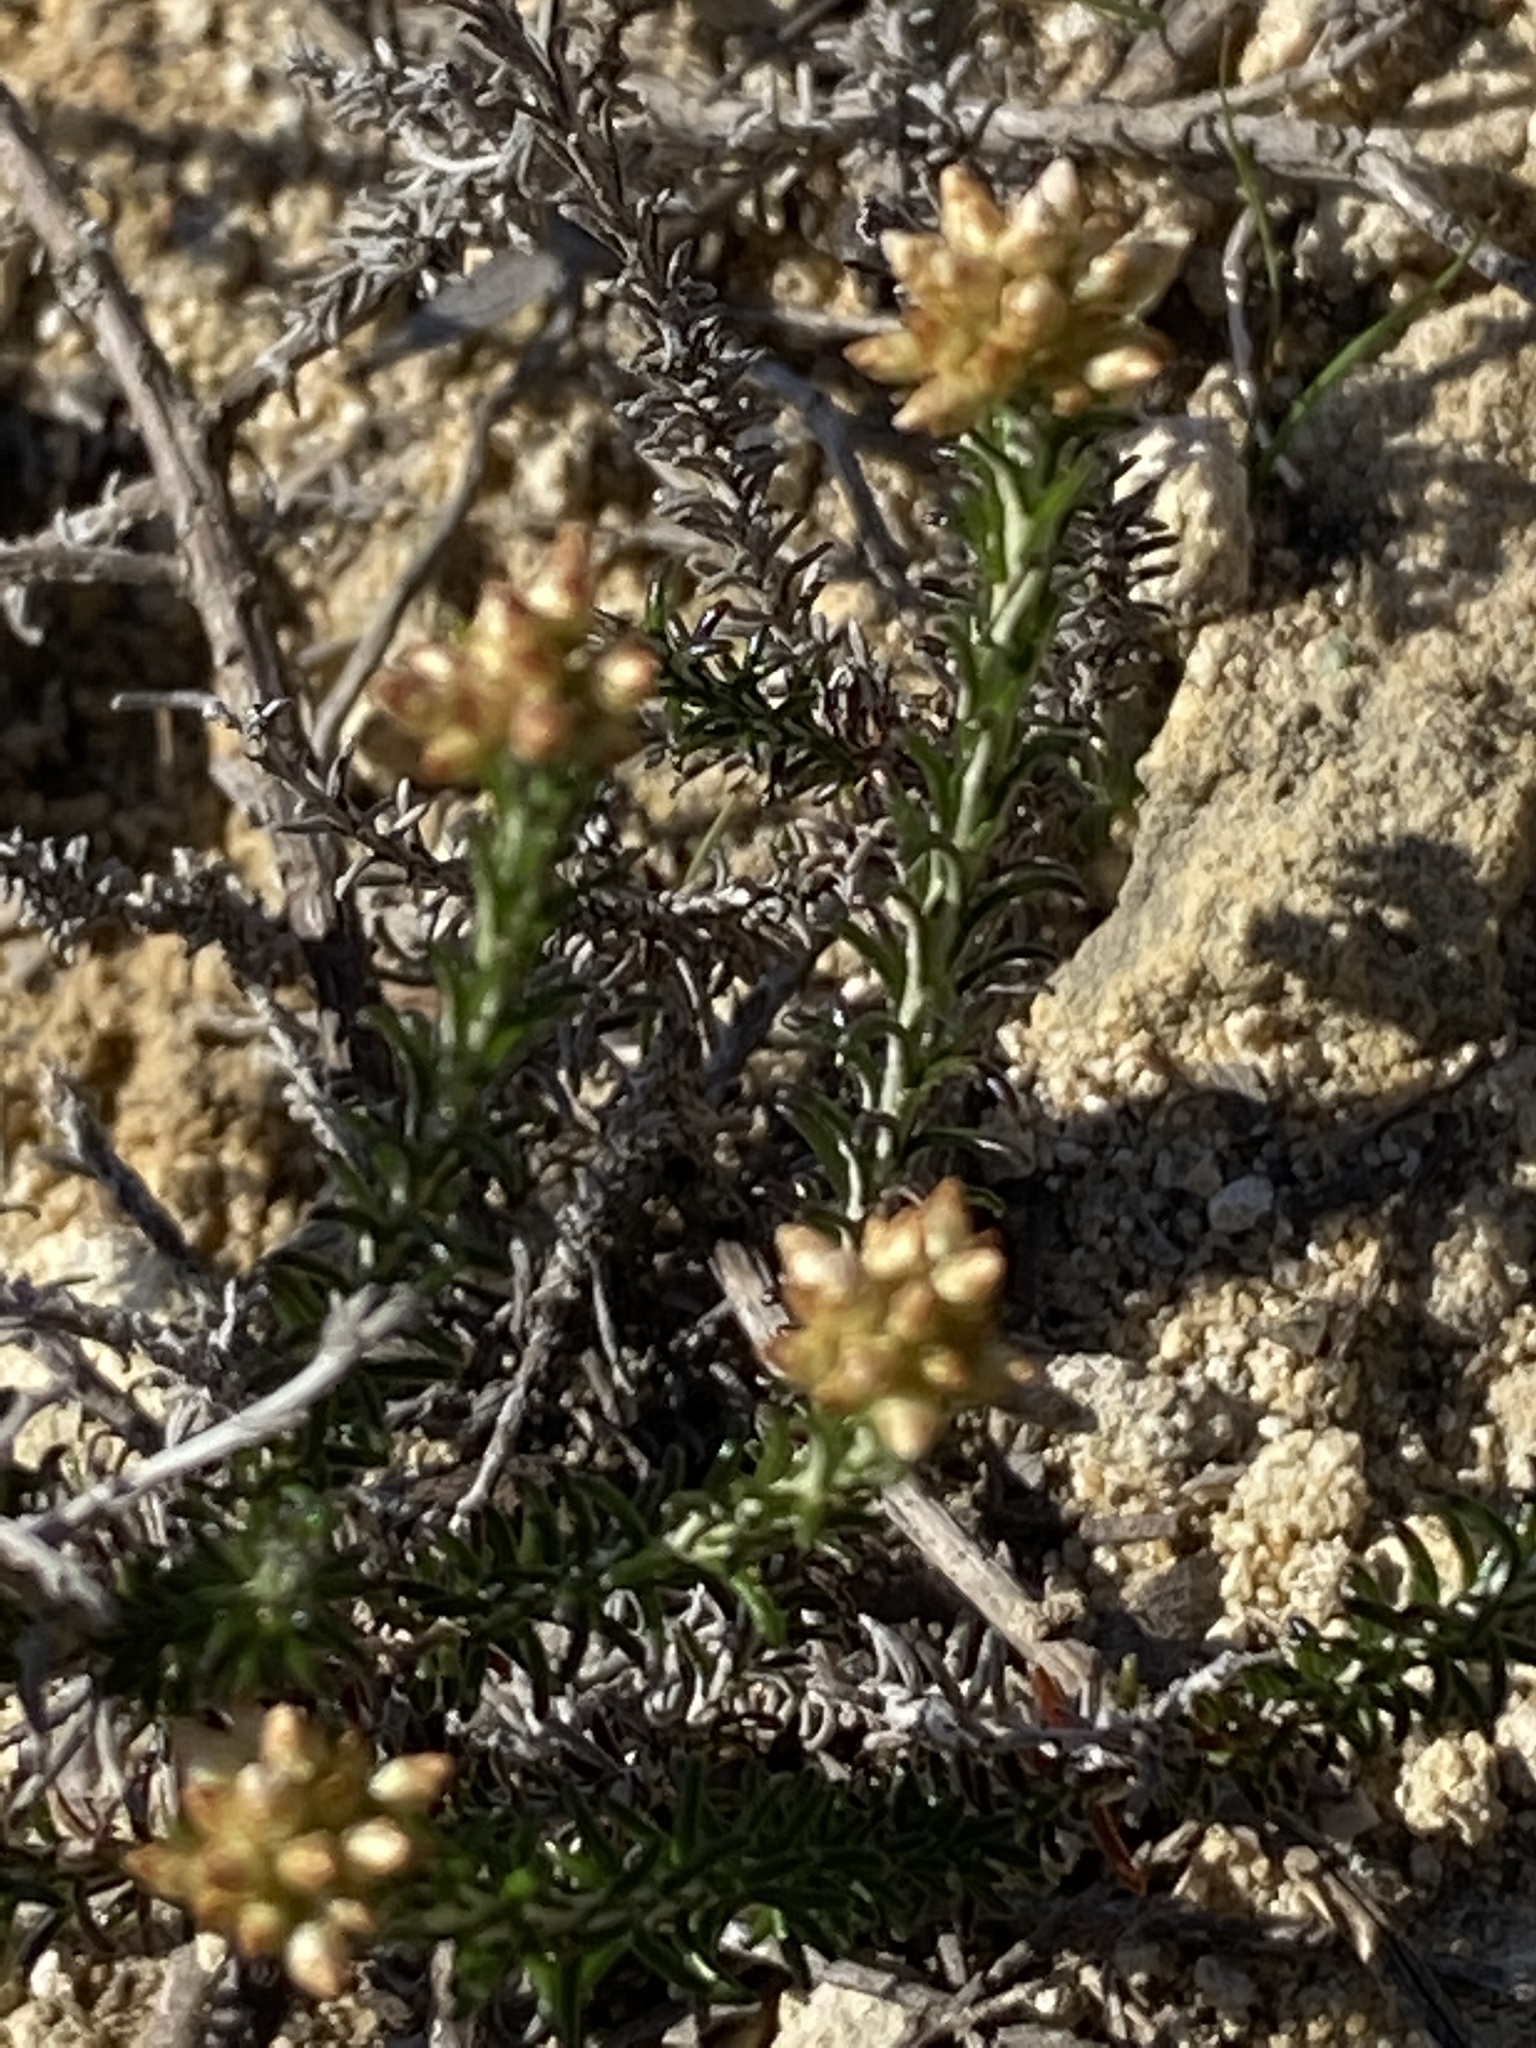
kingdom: Plantae
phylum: Tracheophyta
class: Magnoliopsida
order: Asterales
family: Asteraceae
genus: Helichrysum
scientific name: Helichrysum asperum
